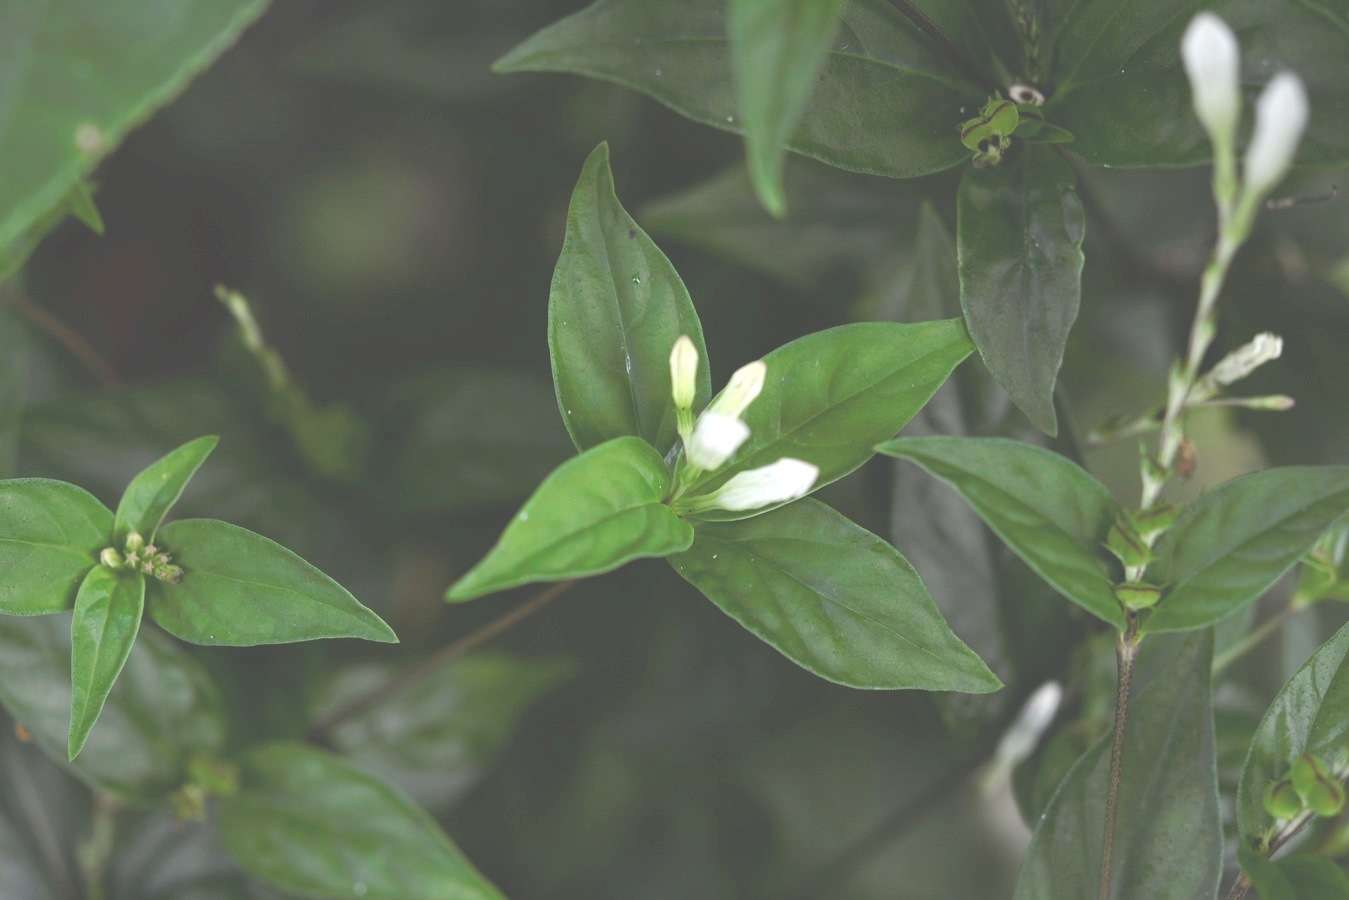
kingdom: Plantae
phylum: Tracheophyta
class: Magnoliopsida
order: Gentianales
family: Loganiaceae
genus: Spigelia
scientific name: Spigelia humboldtiana
